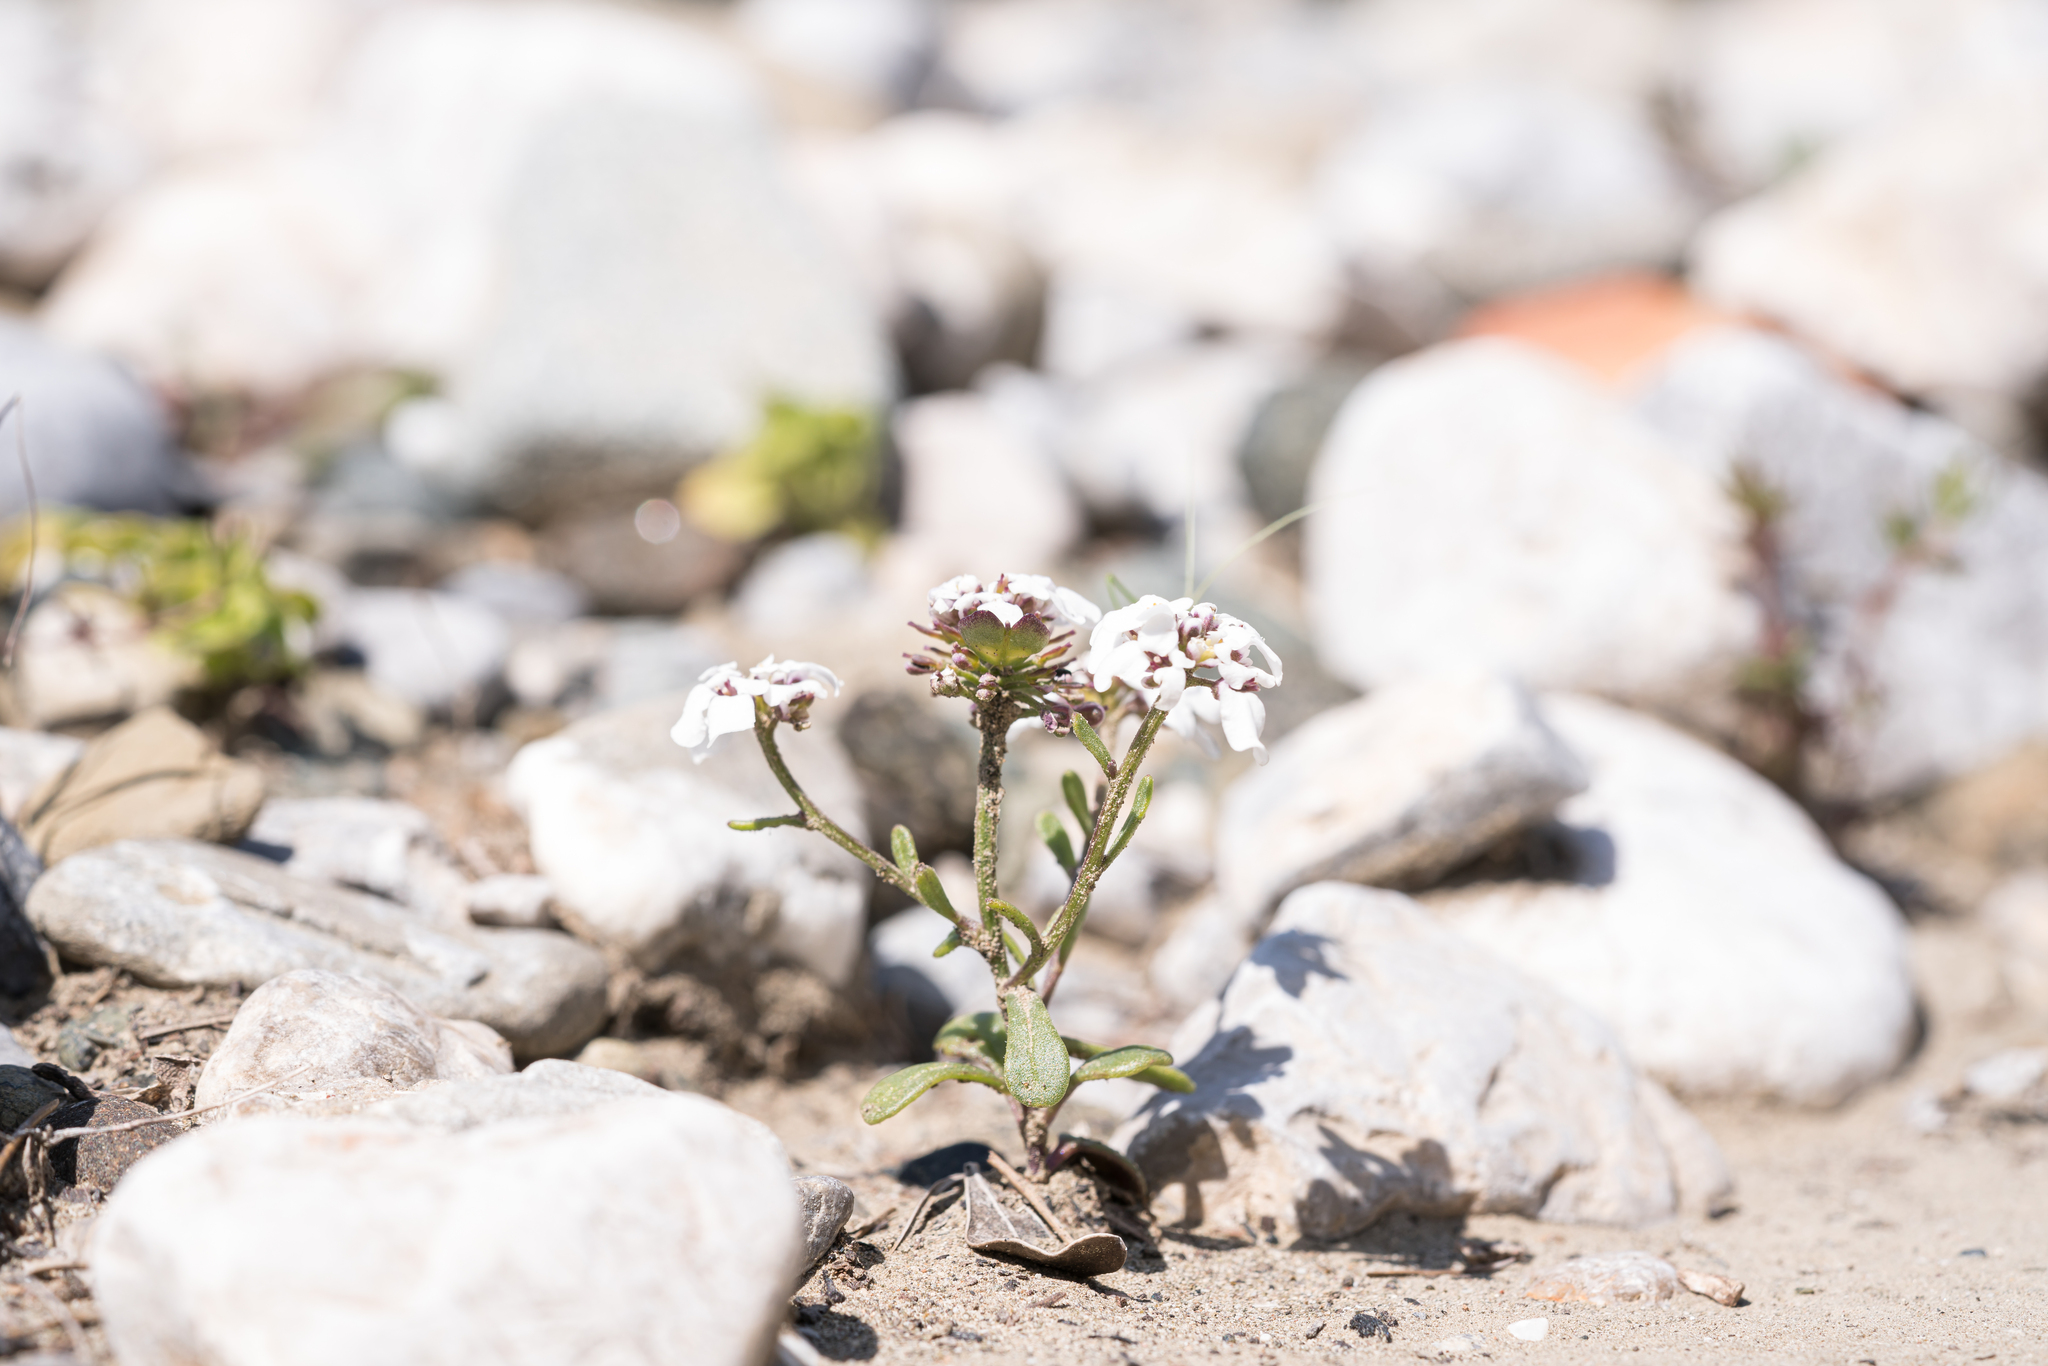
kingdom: Plantae
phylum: Tracheophyta
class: Magnoliopsida
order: Brassicales
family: Brassicaceae
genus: Iberis
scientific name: Iberis carnosa
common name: Pruit's candytuft
